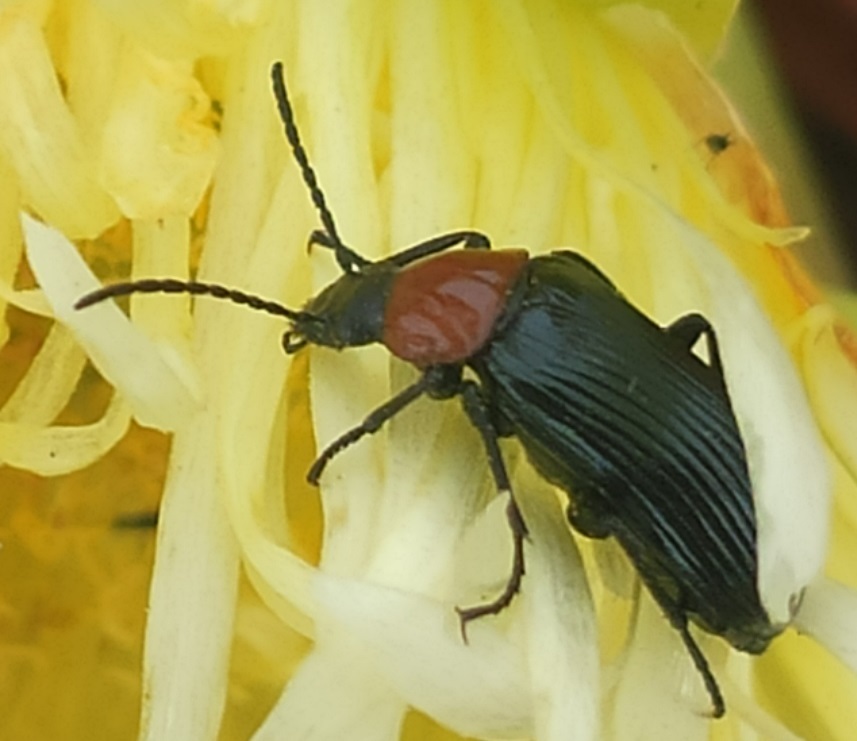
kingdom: Animalia
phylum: Arthropoda
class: Insecta
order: Coleoptera
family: Tenebrionidae
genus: Heliotaurus
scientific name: Heliotaurus ruficollis
